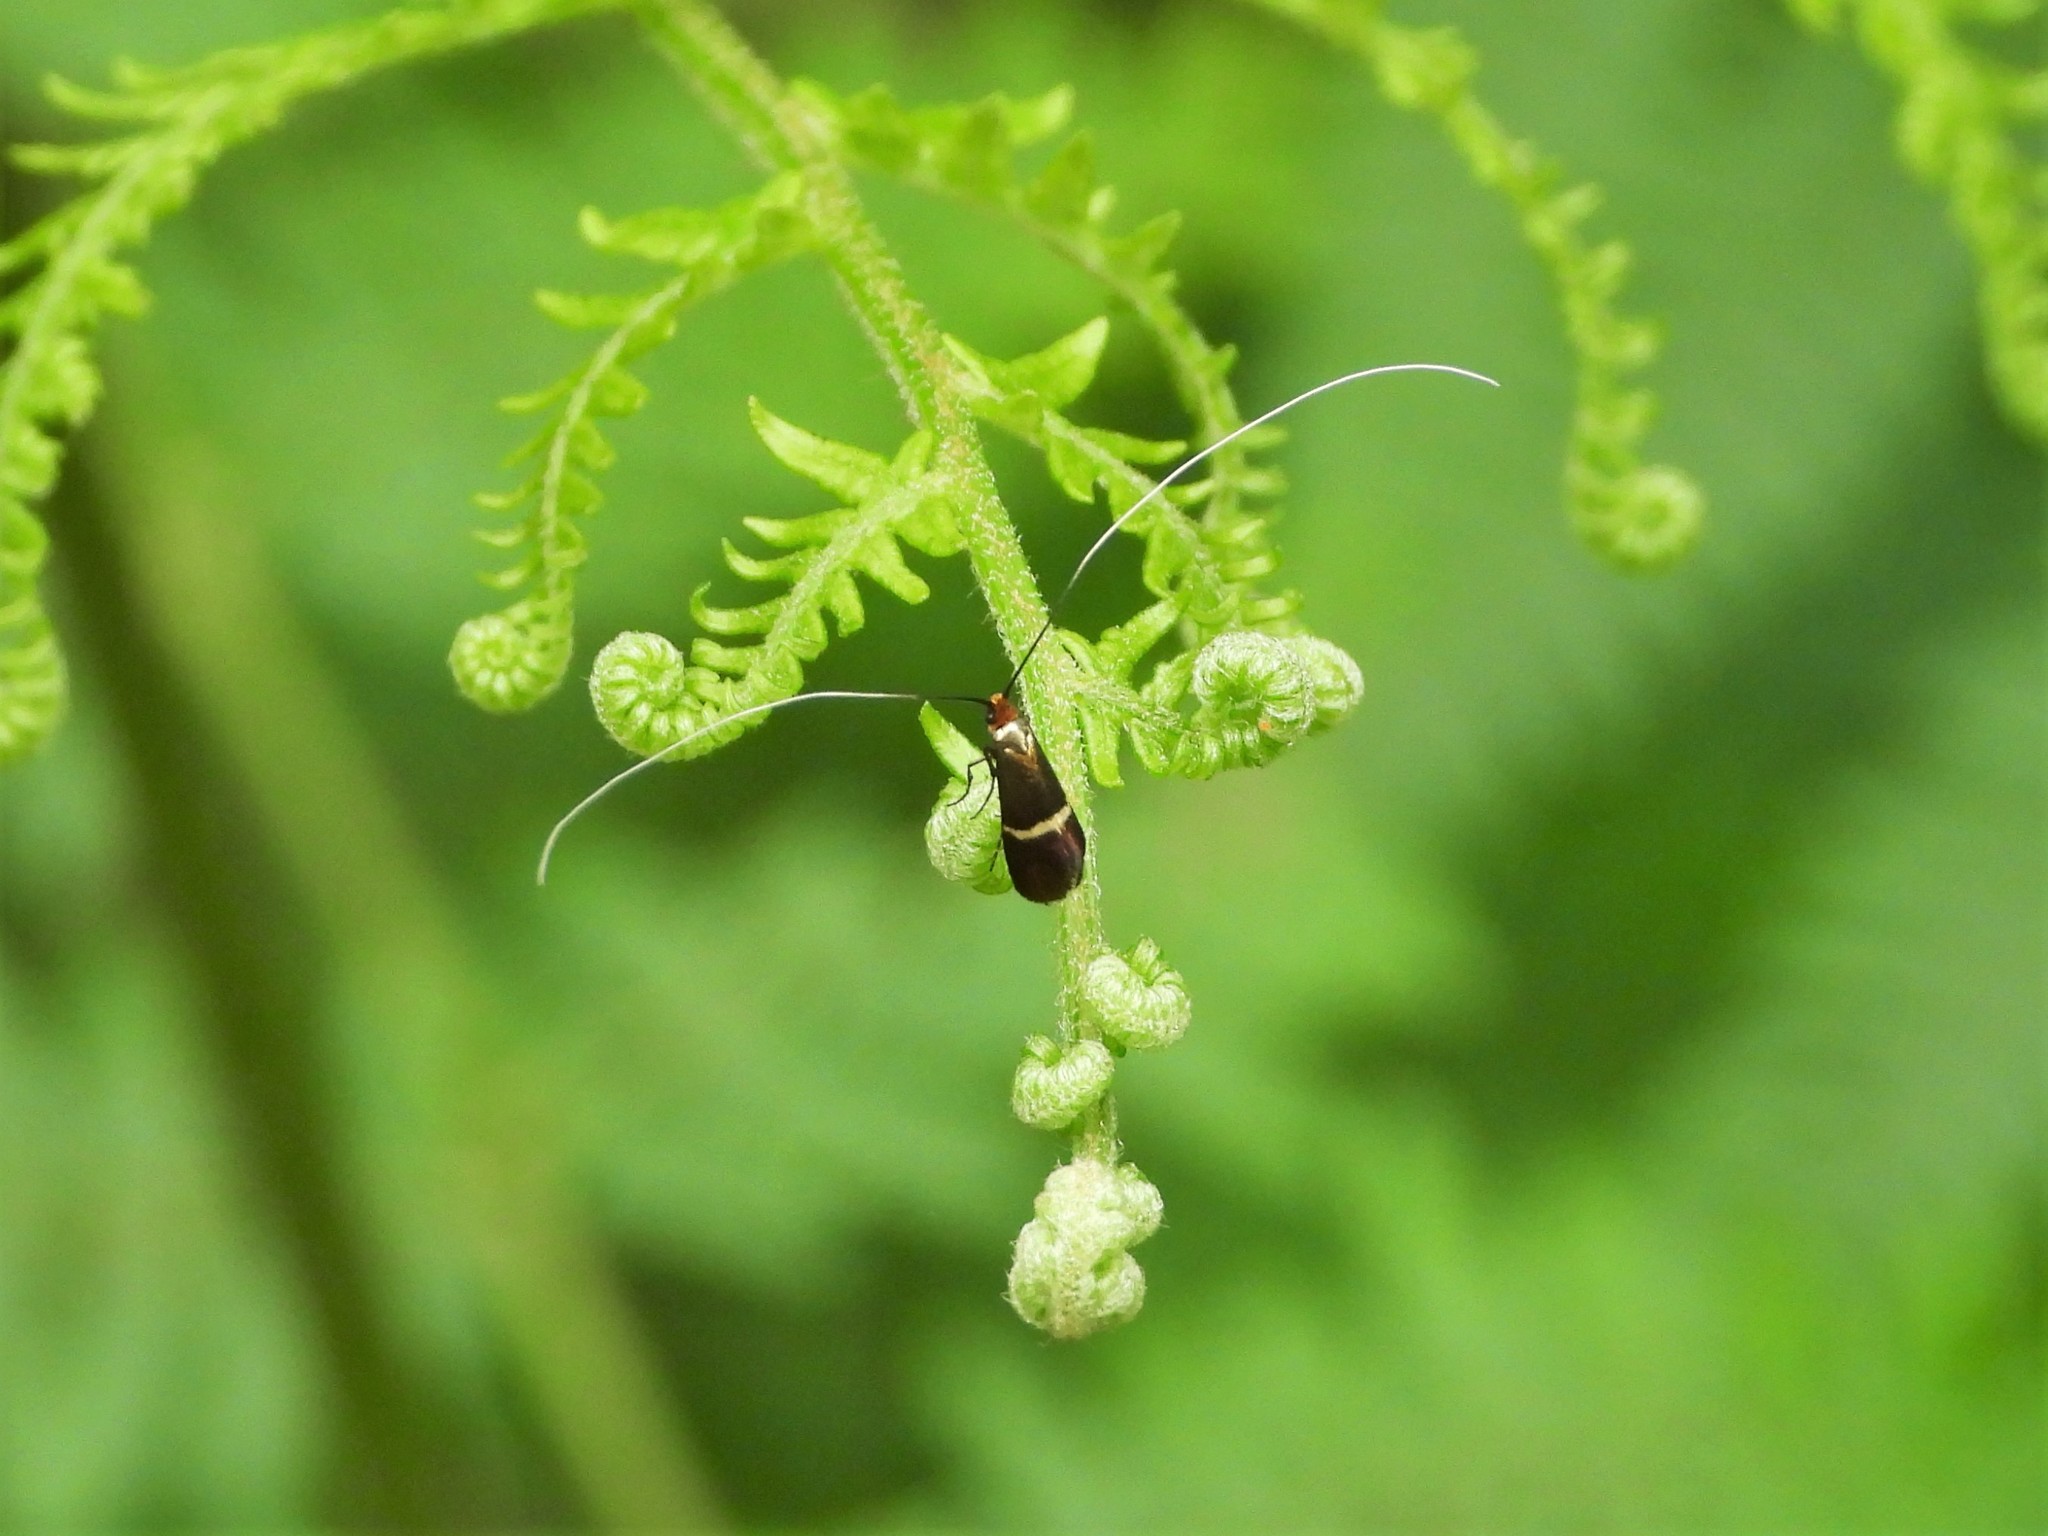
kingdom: Animalia
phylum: Arthropoda
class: Insecta
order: Lepidoptera
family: Adelidae
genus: Adela
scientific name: Adela australis
